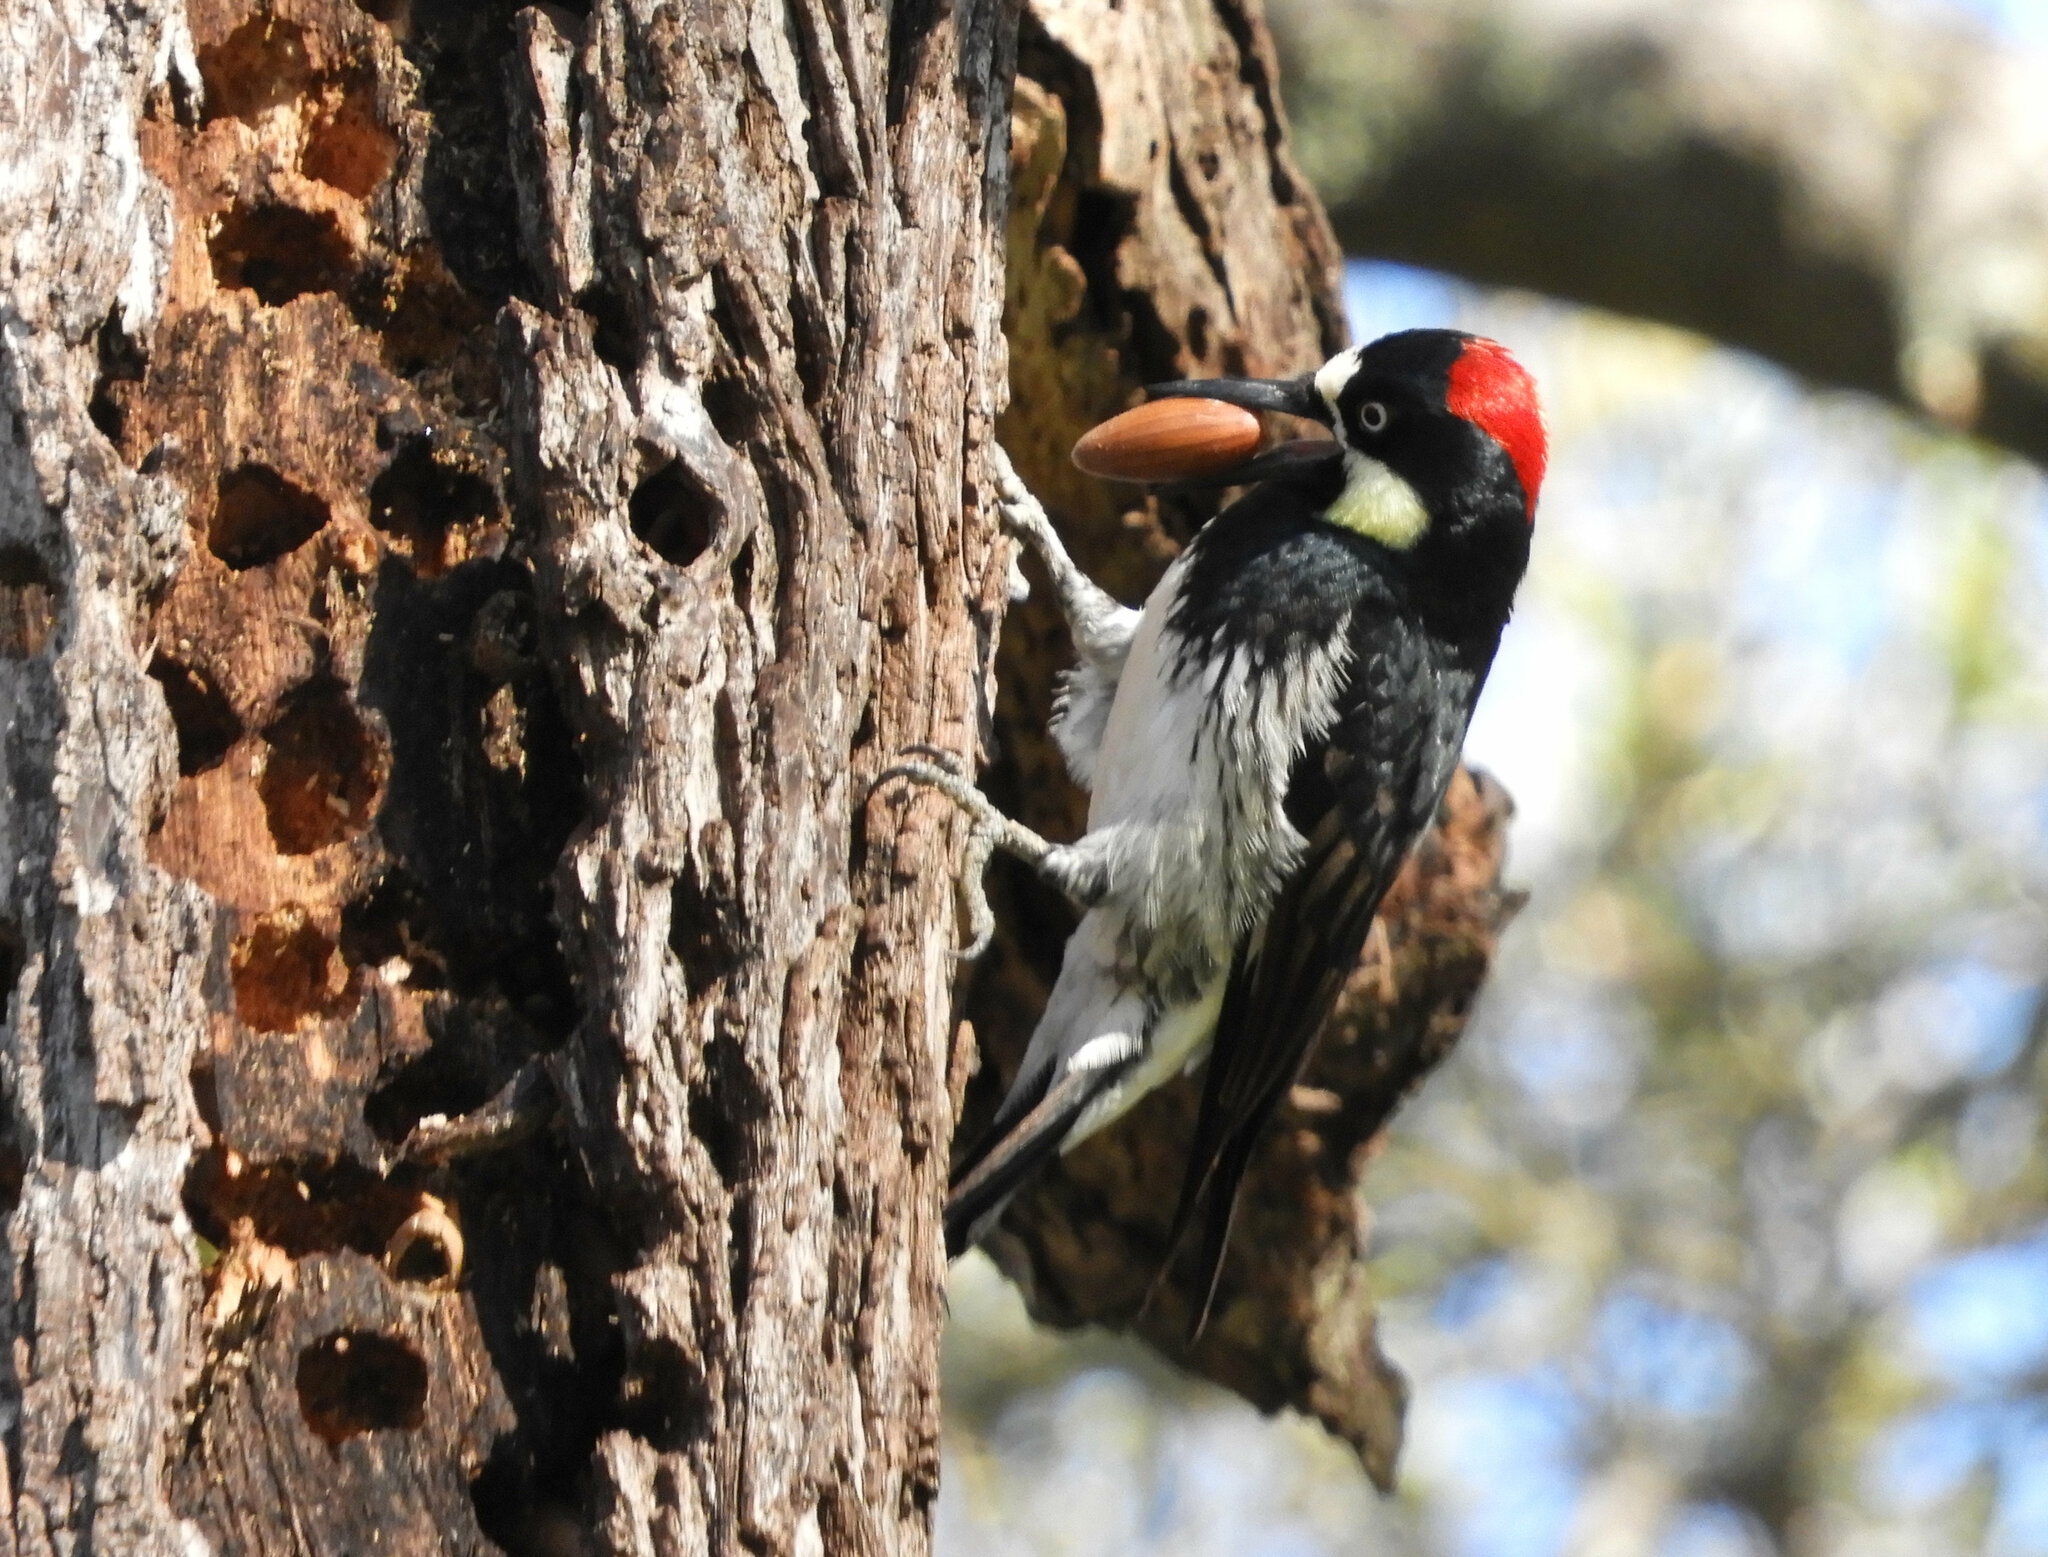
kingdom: Animalia
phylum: Chordata
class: Aves
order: Piciformes
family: Picidae
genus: Melanerpes
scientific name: Melanerpes formicivorus
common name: Acorn woodpecker
